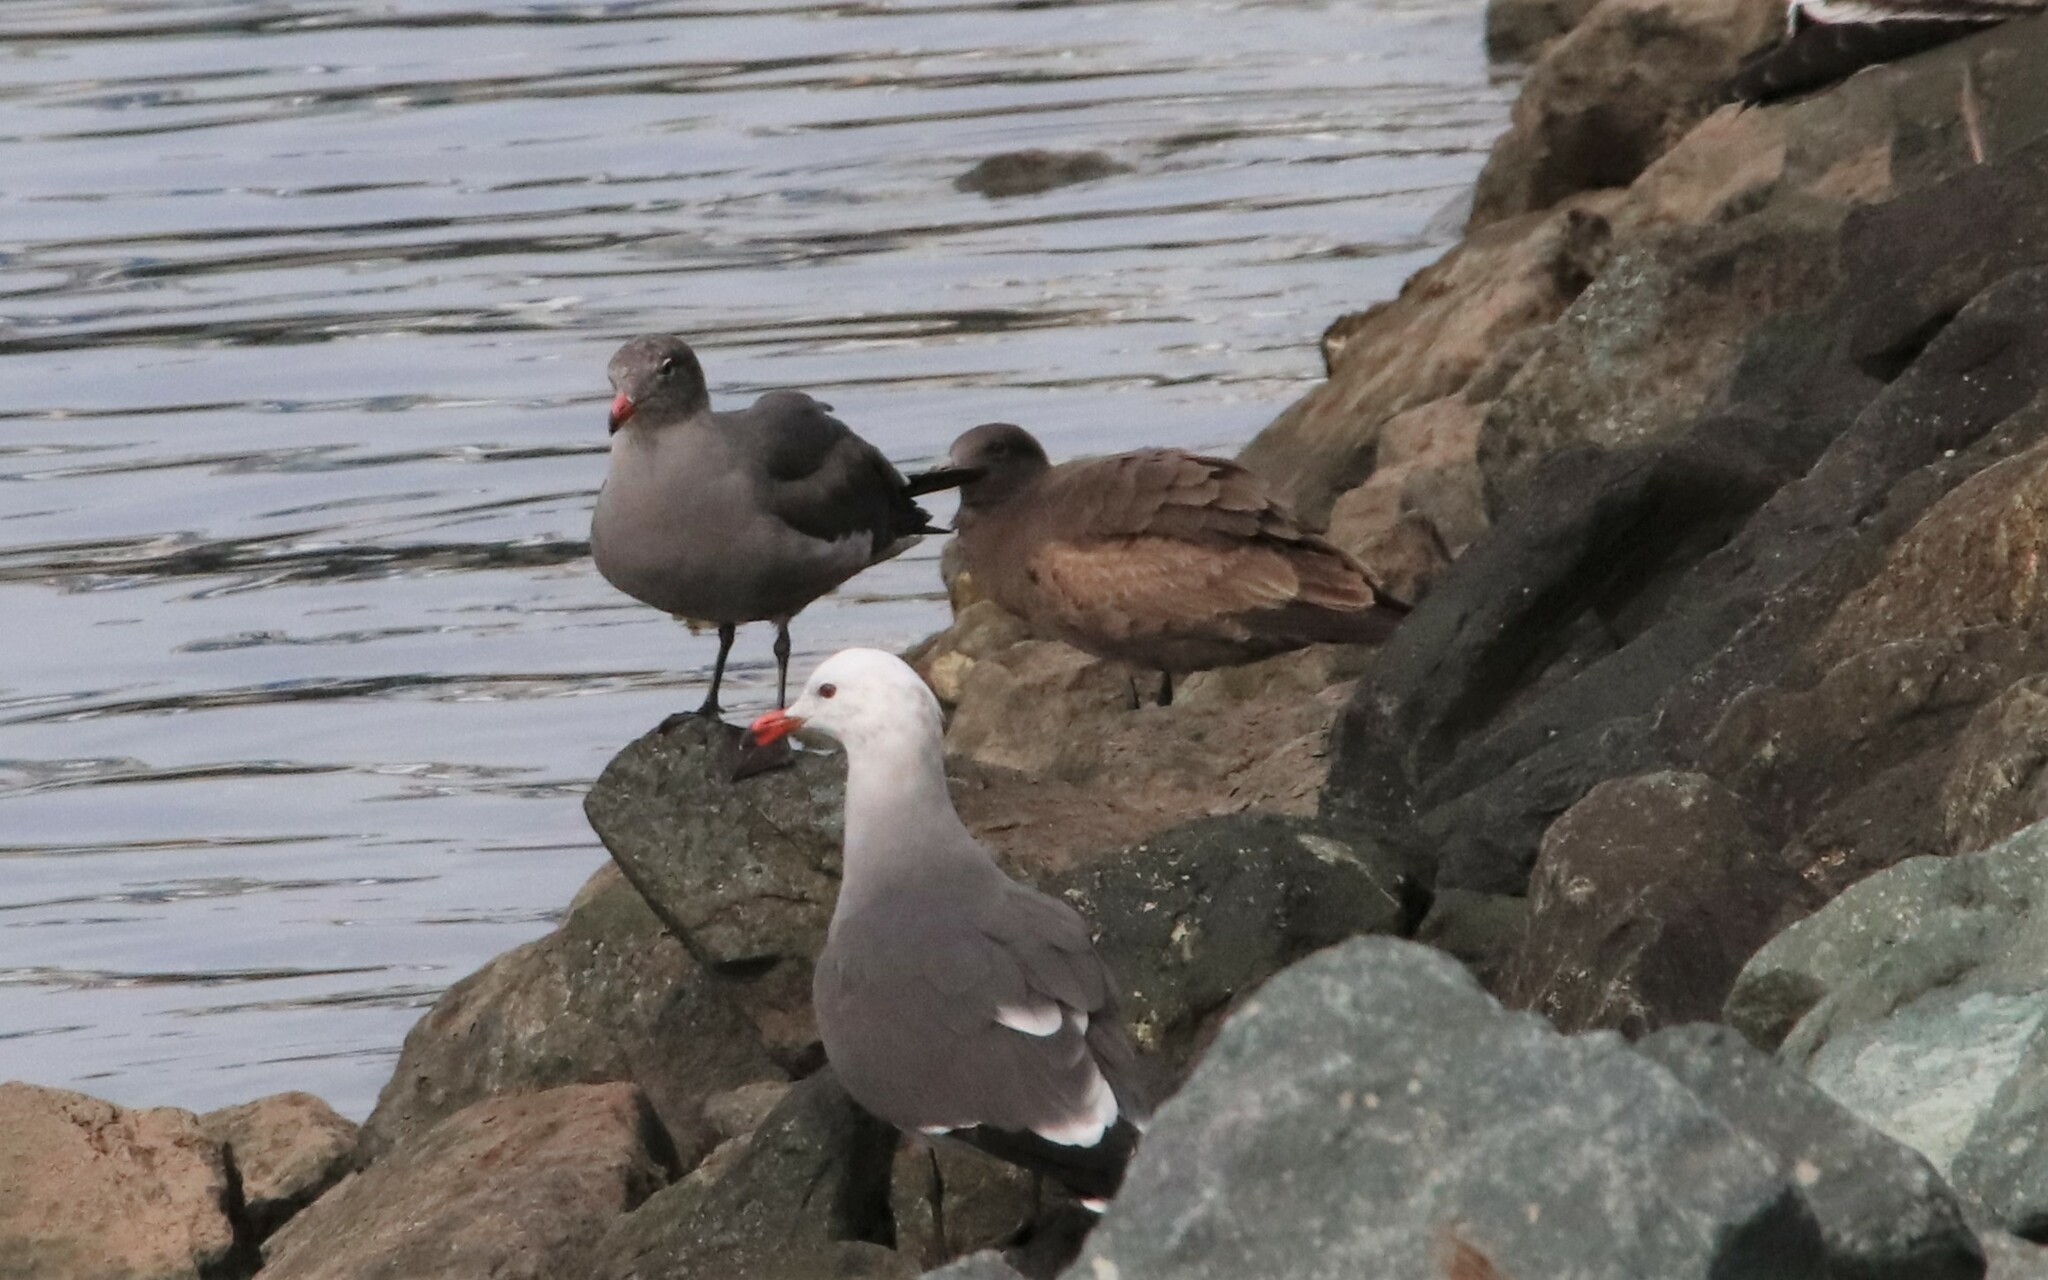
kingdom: Animalia
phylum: Chordata
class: Aves
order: Charadriiformes
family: Laridae
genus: Larus
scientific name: Larus heermanni
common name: Heermann's gull
